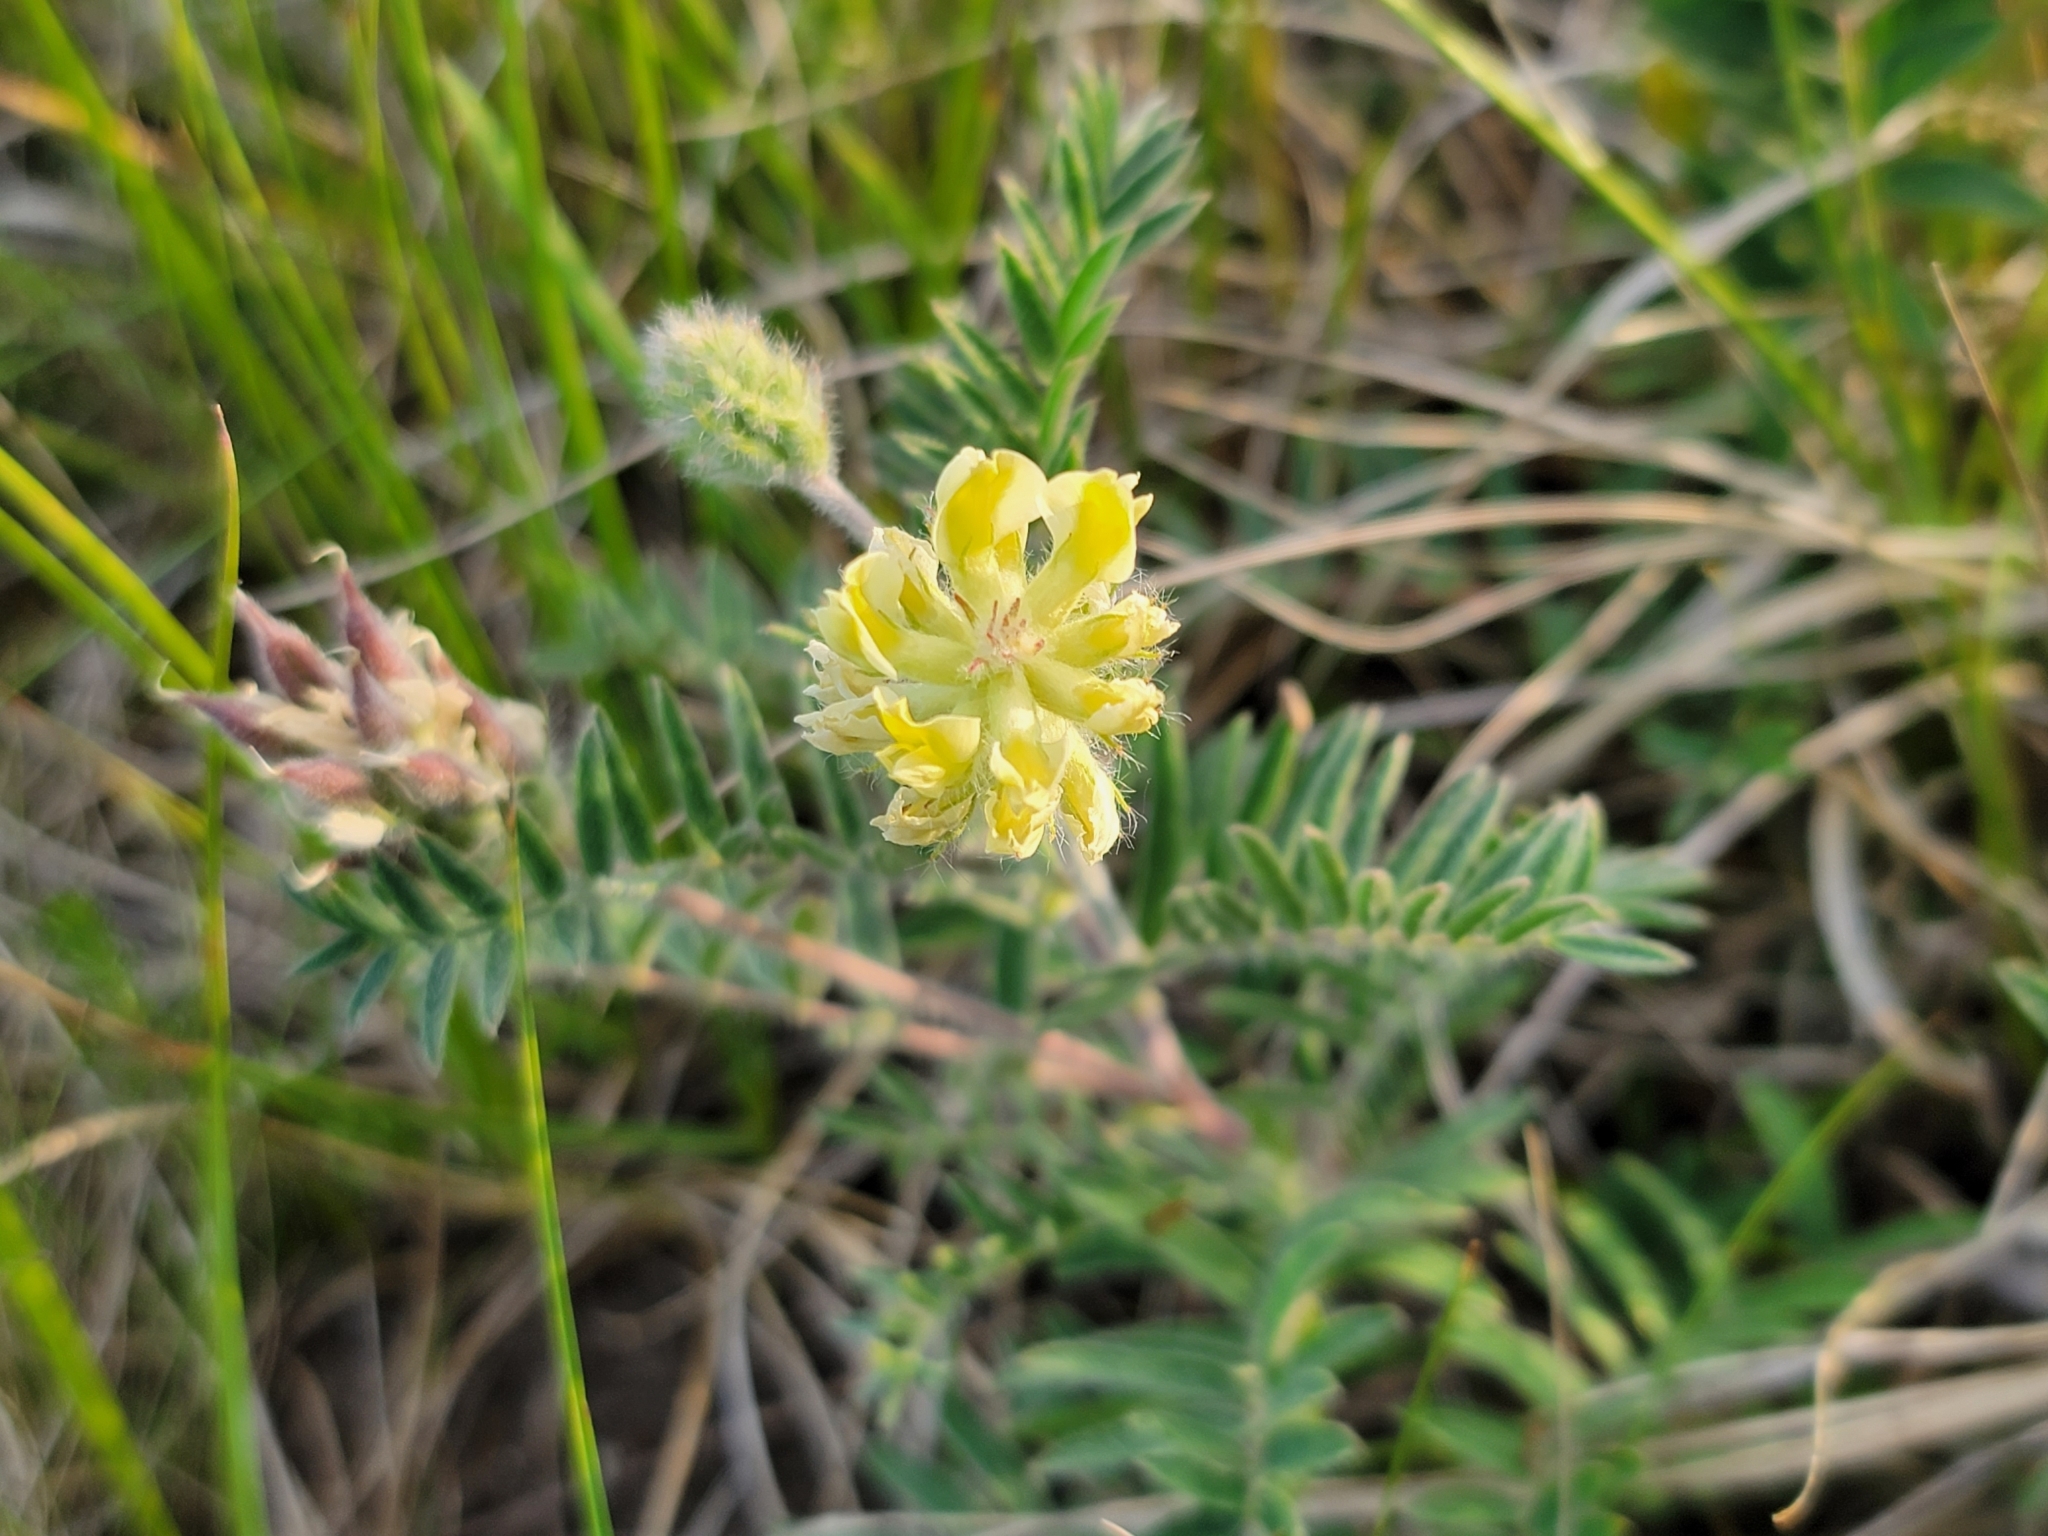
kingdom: Plantae
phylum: Tracheophyta
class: Magnoliopsida
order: Fabales
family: Fabaceae
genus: Oxytropis
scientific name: Oxytropis pilosa
